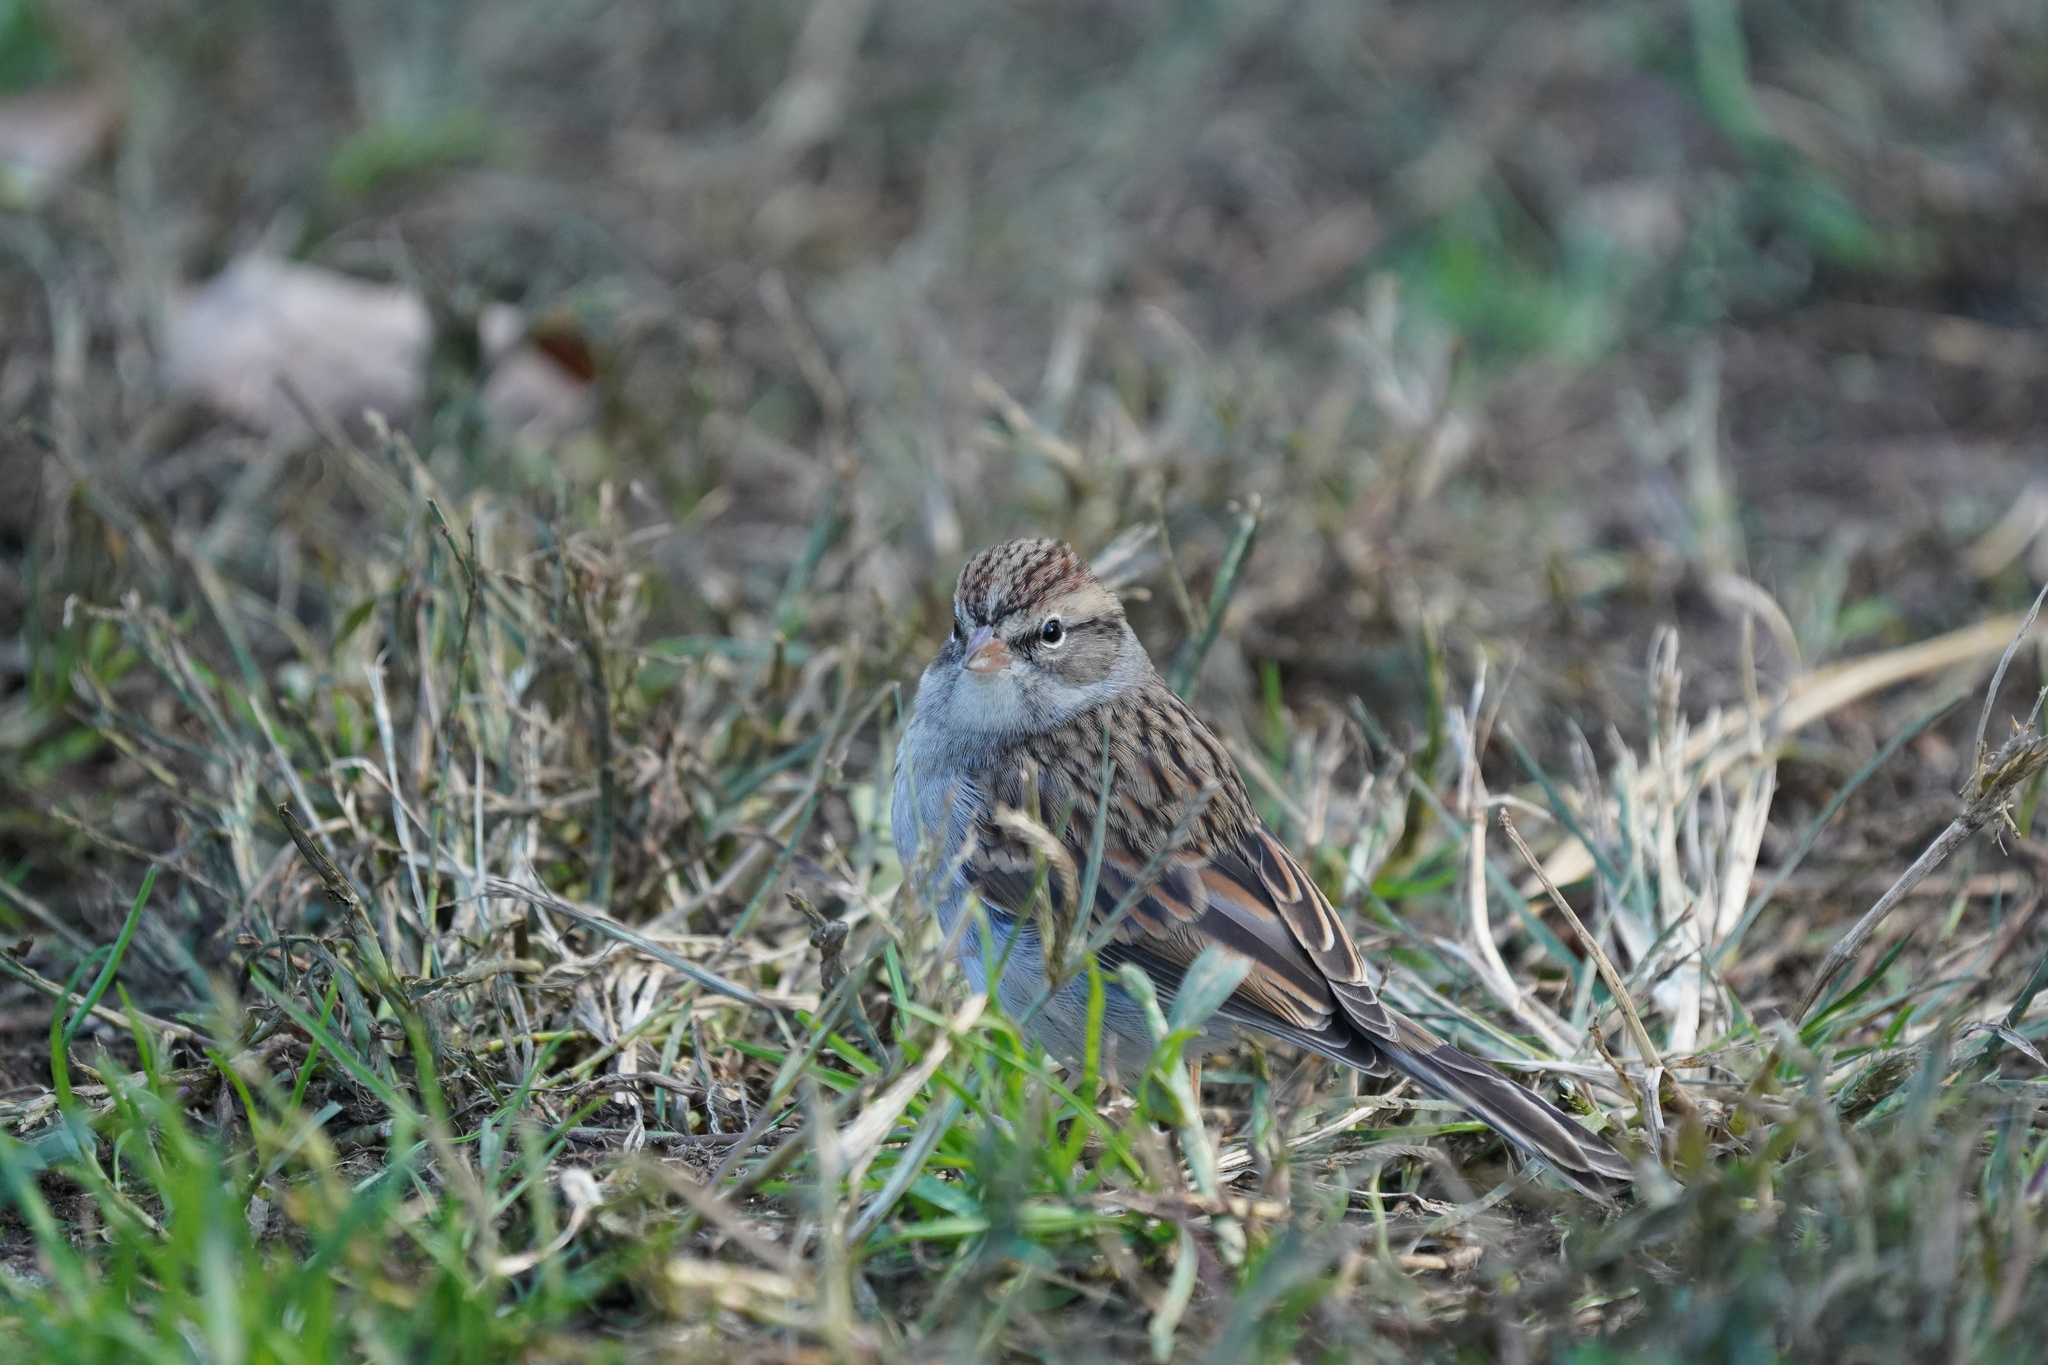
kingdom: Animalia
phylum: Chordata
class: Aves
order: Passeriformes
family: Passerellidae
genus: Spizella
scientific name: Spizella passerina
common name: Chipping sparrow
